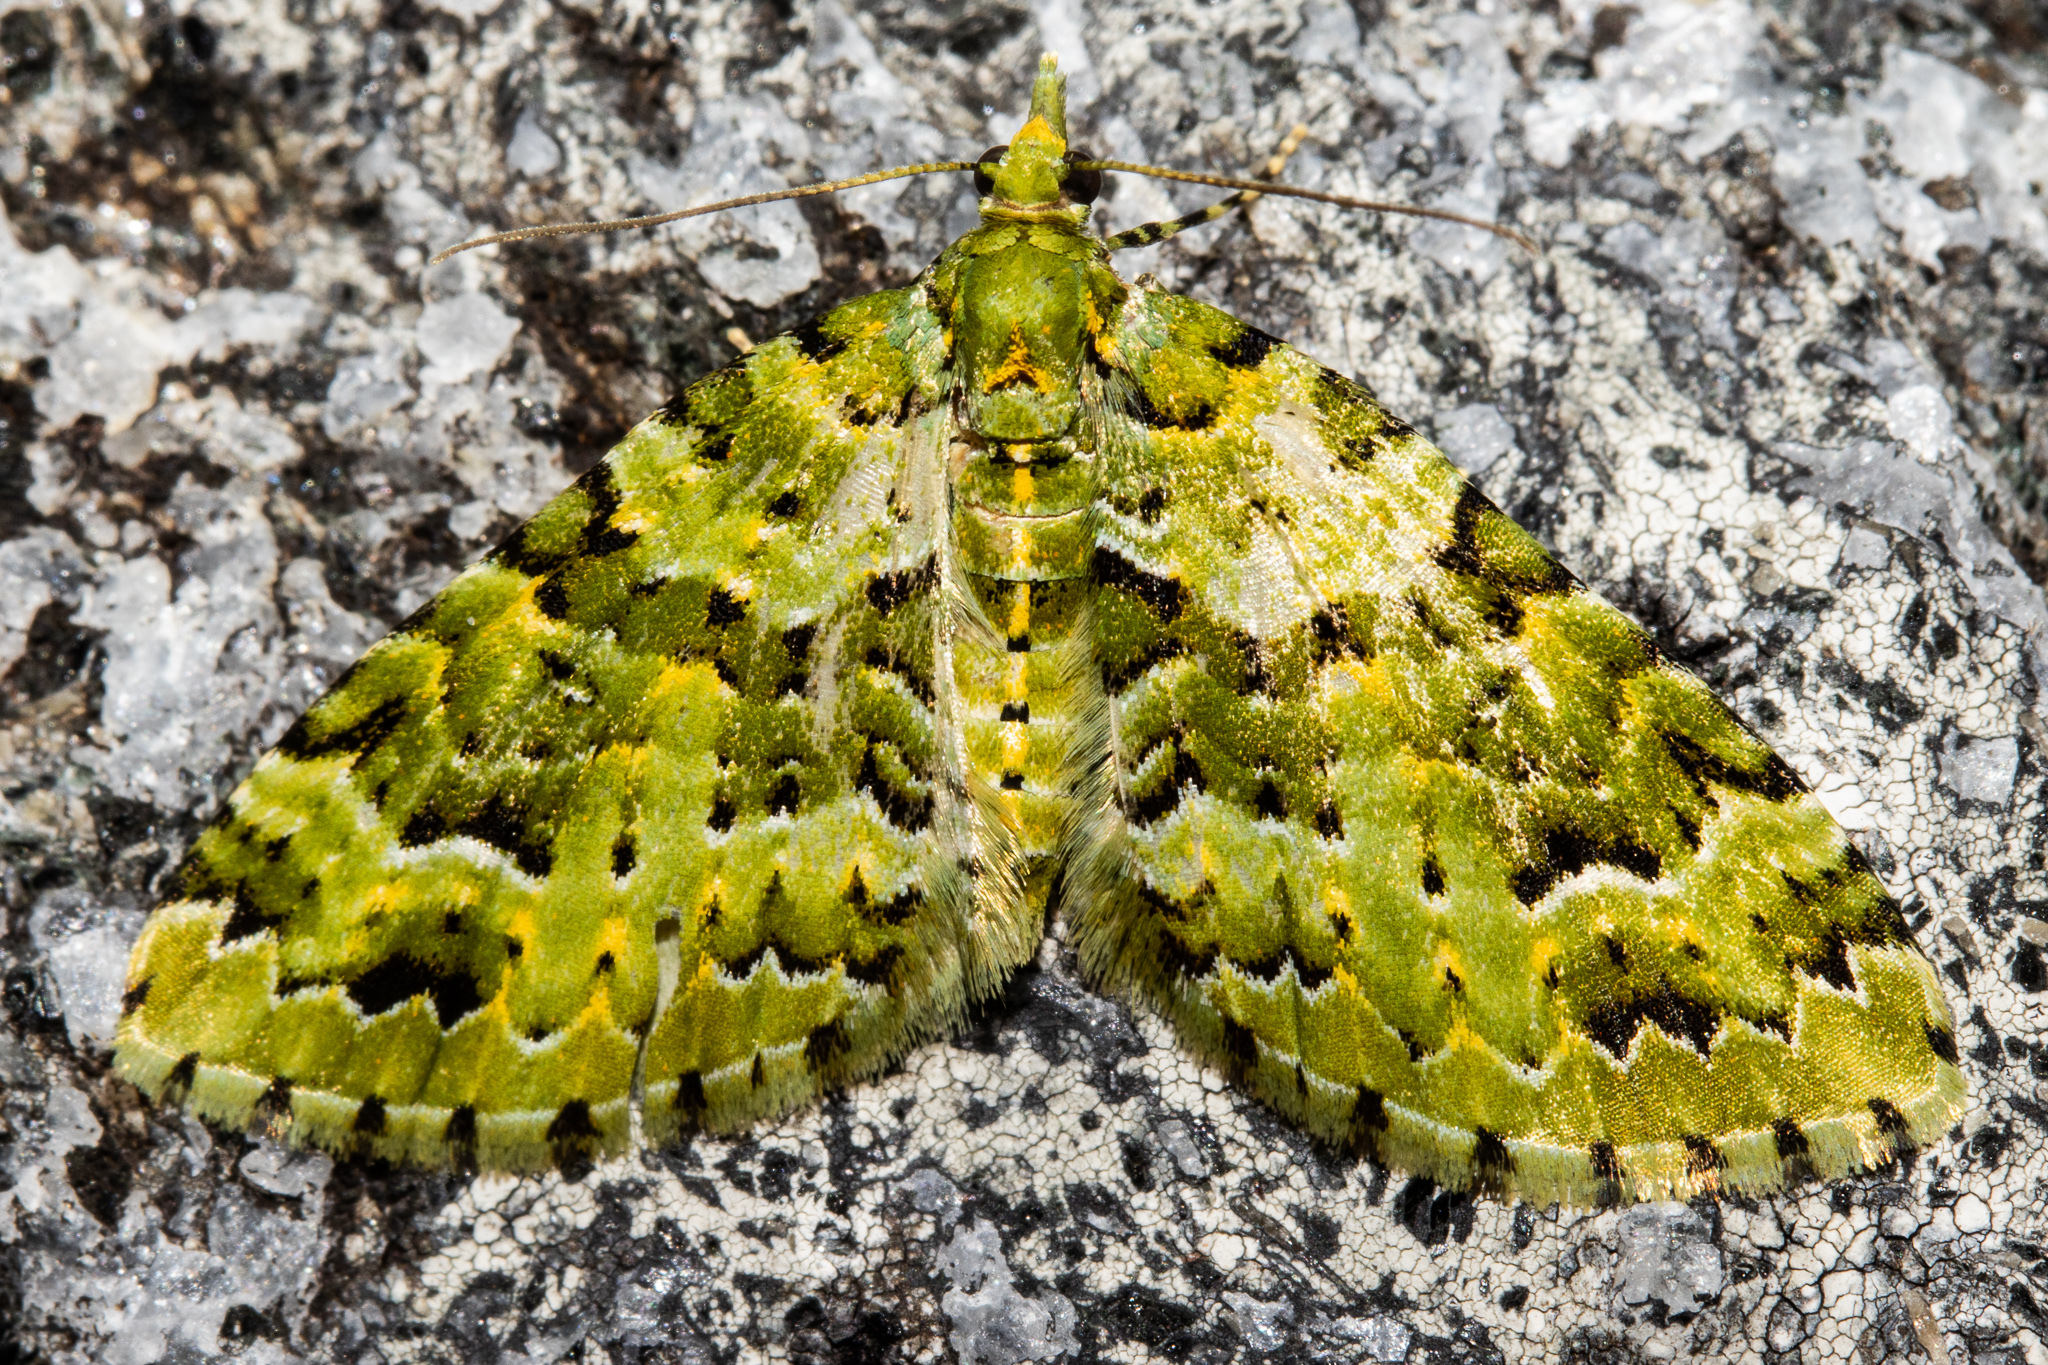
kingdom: Animalia
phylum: Arthropoda
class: Insecta
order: Lepidoptera
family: Geometridae
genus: Pasiphila
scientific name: Pasiphila melochlora
